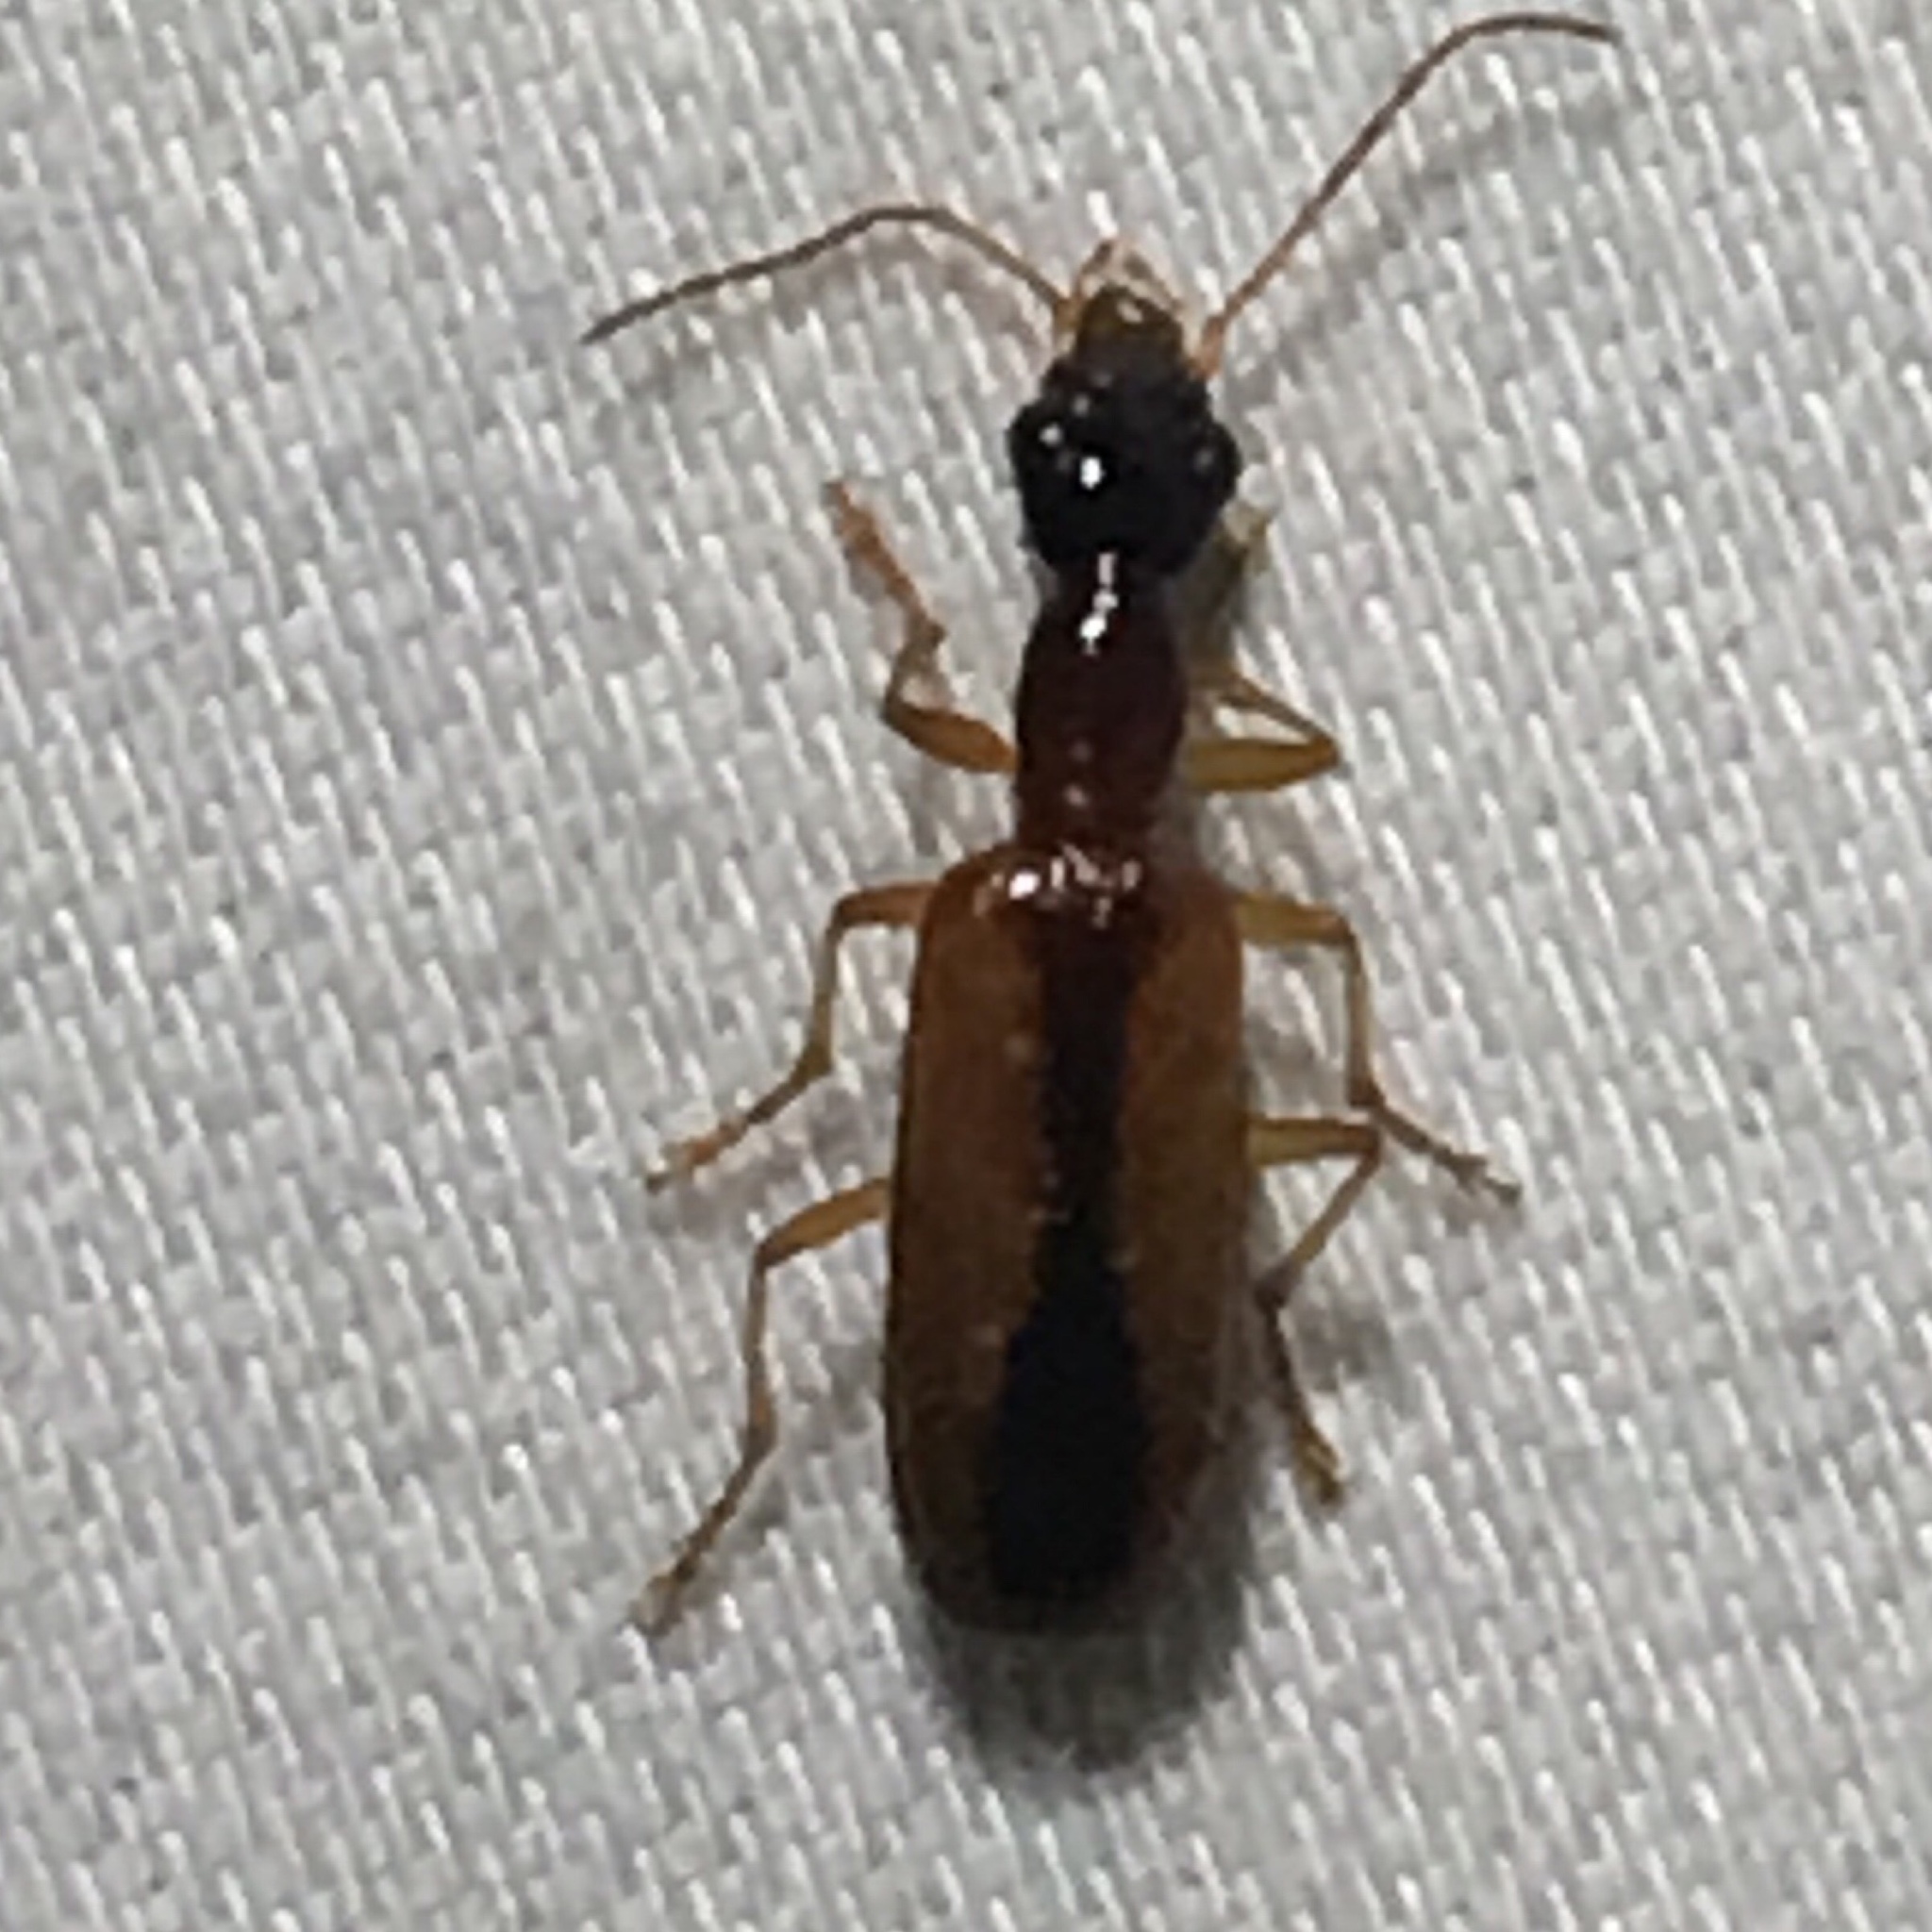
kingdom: Animalia
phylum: Arthropoda
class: Insecta
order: Coleoptera
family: Carabidae
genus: Leptotrachelus
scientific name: Leptotrachelus dorsalis
